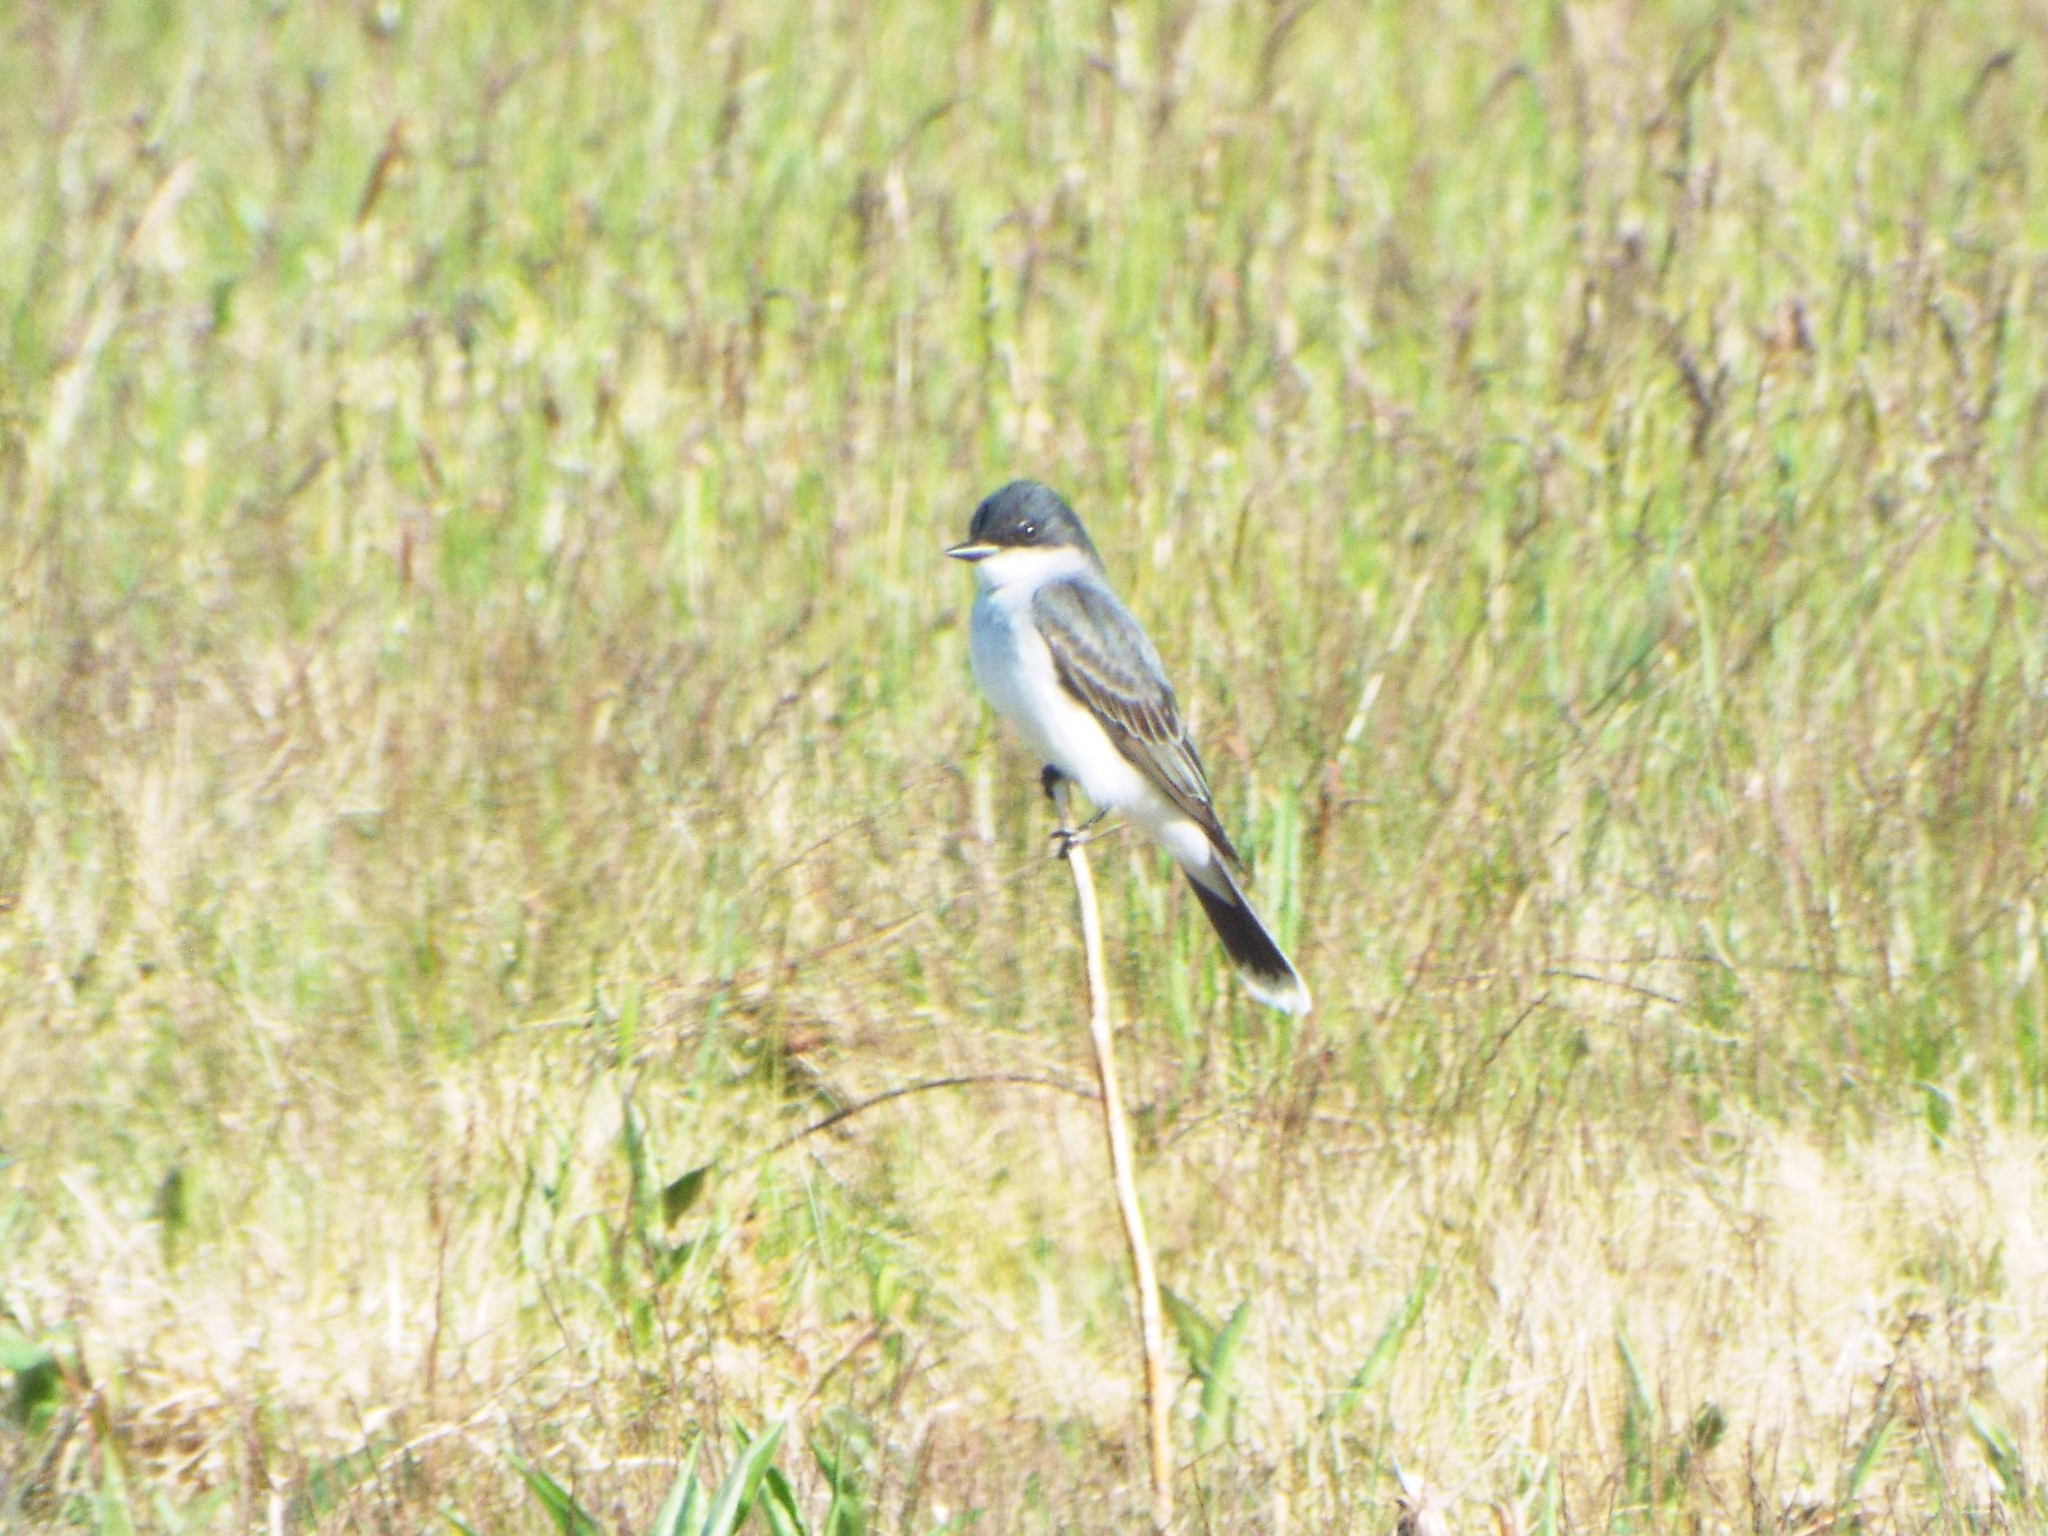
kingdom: Animalia
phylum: Chordata
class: Aves
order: Passeriformes
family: Tyrannidae
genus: Tyrannus
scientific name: Tyrannus tyrannus
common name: Eastern kingbird
